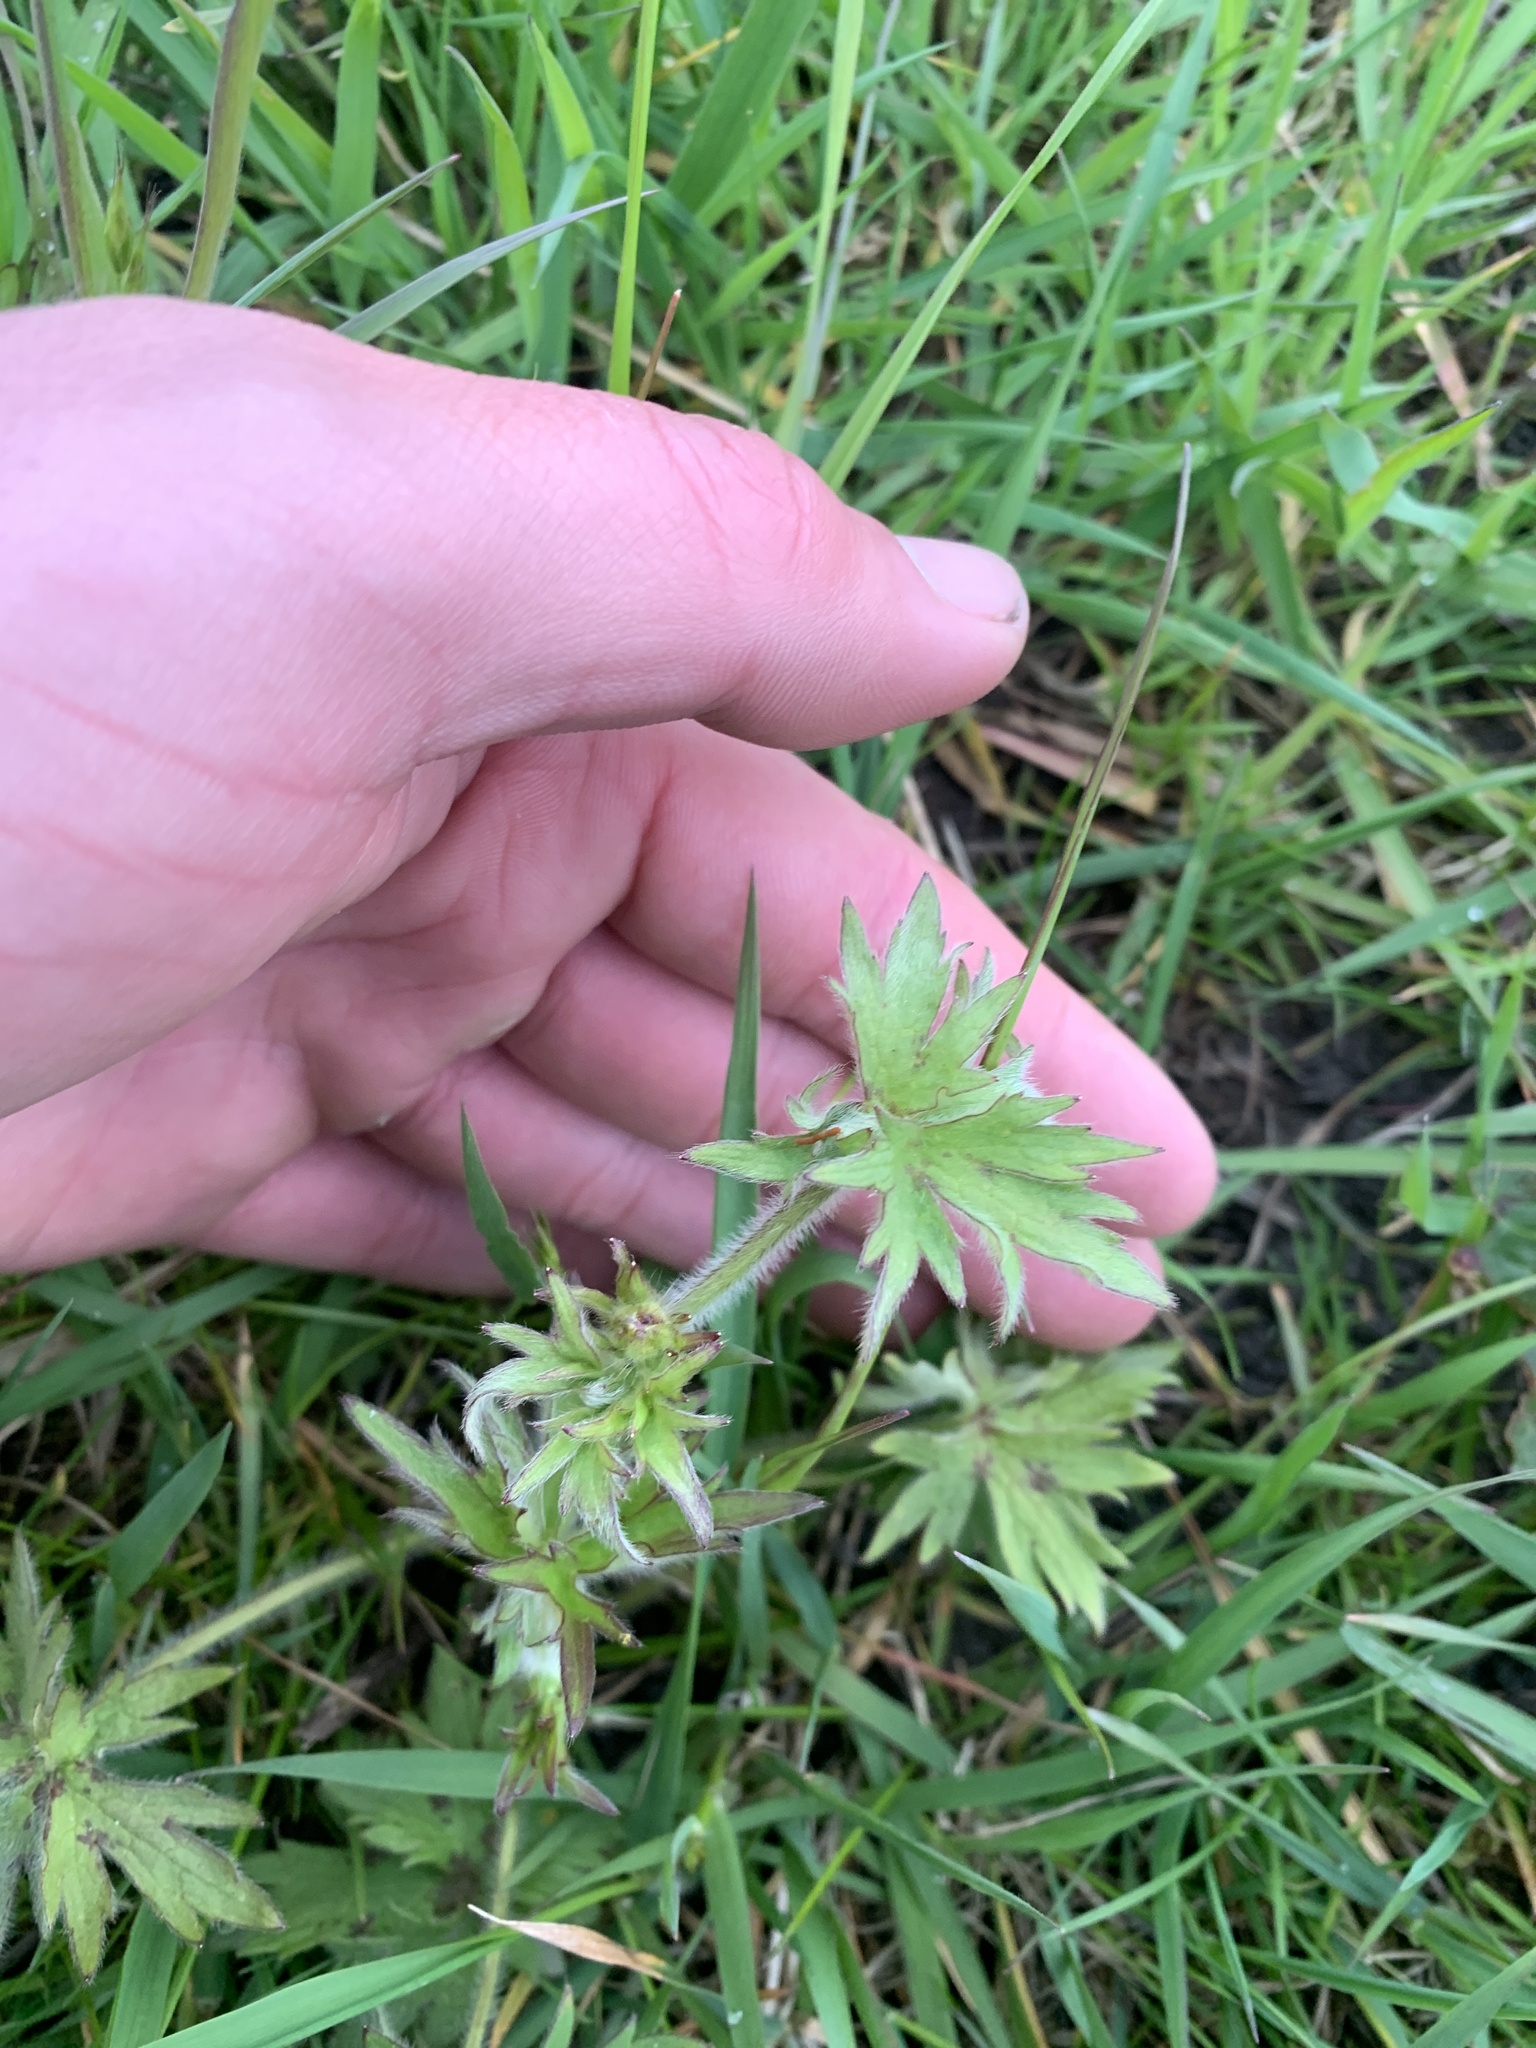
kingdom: Plantae
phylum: Tracheophyta
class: Magnoliopsida
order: Ranunculales
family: Ranunculaceae
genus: Ranunculus
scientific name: Ranunculus acris
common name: Meadow buttercup
